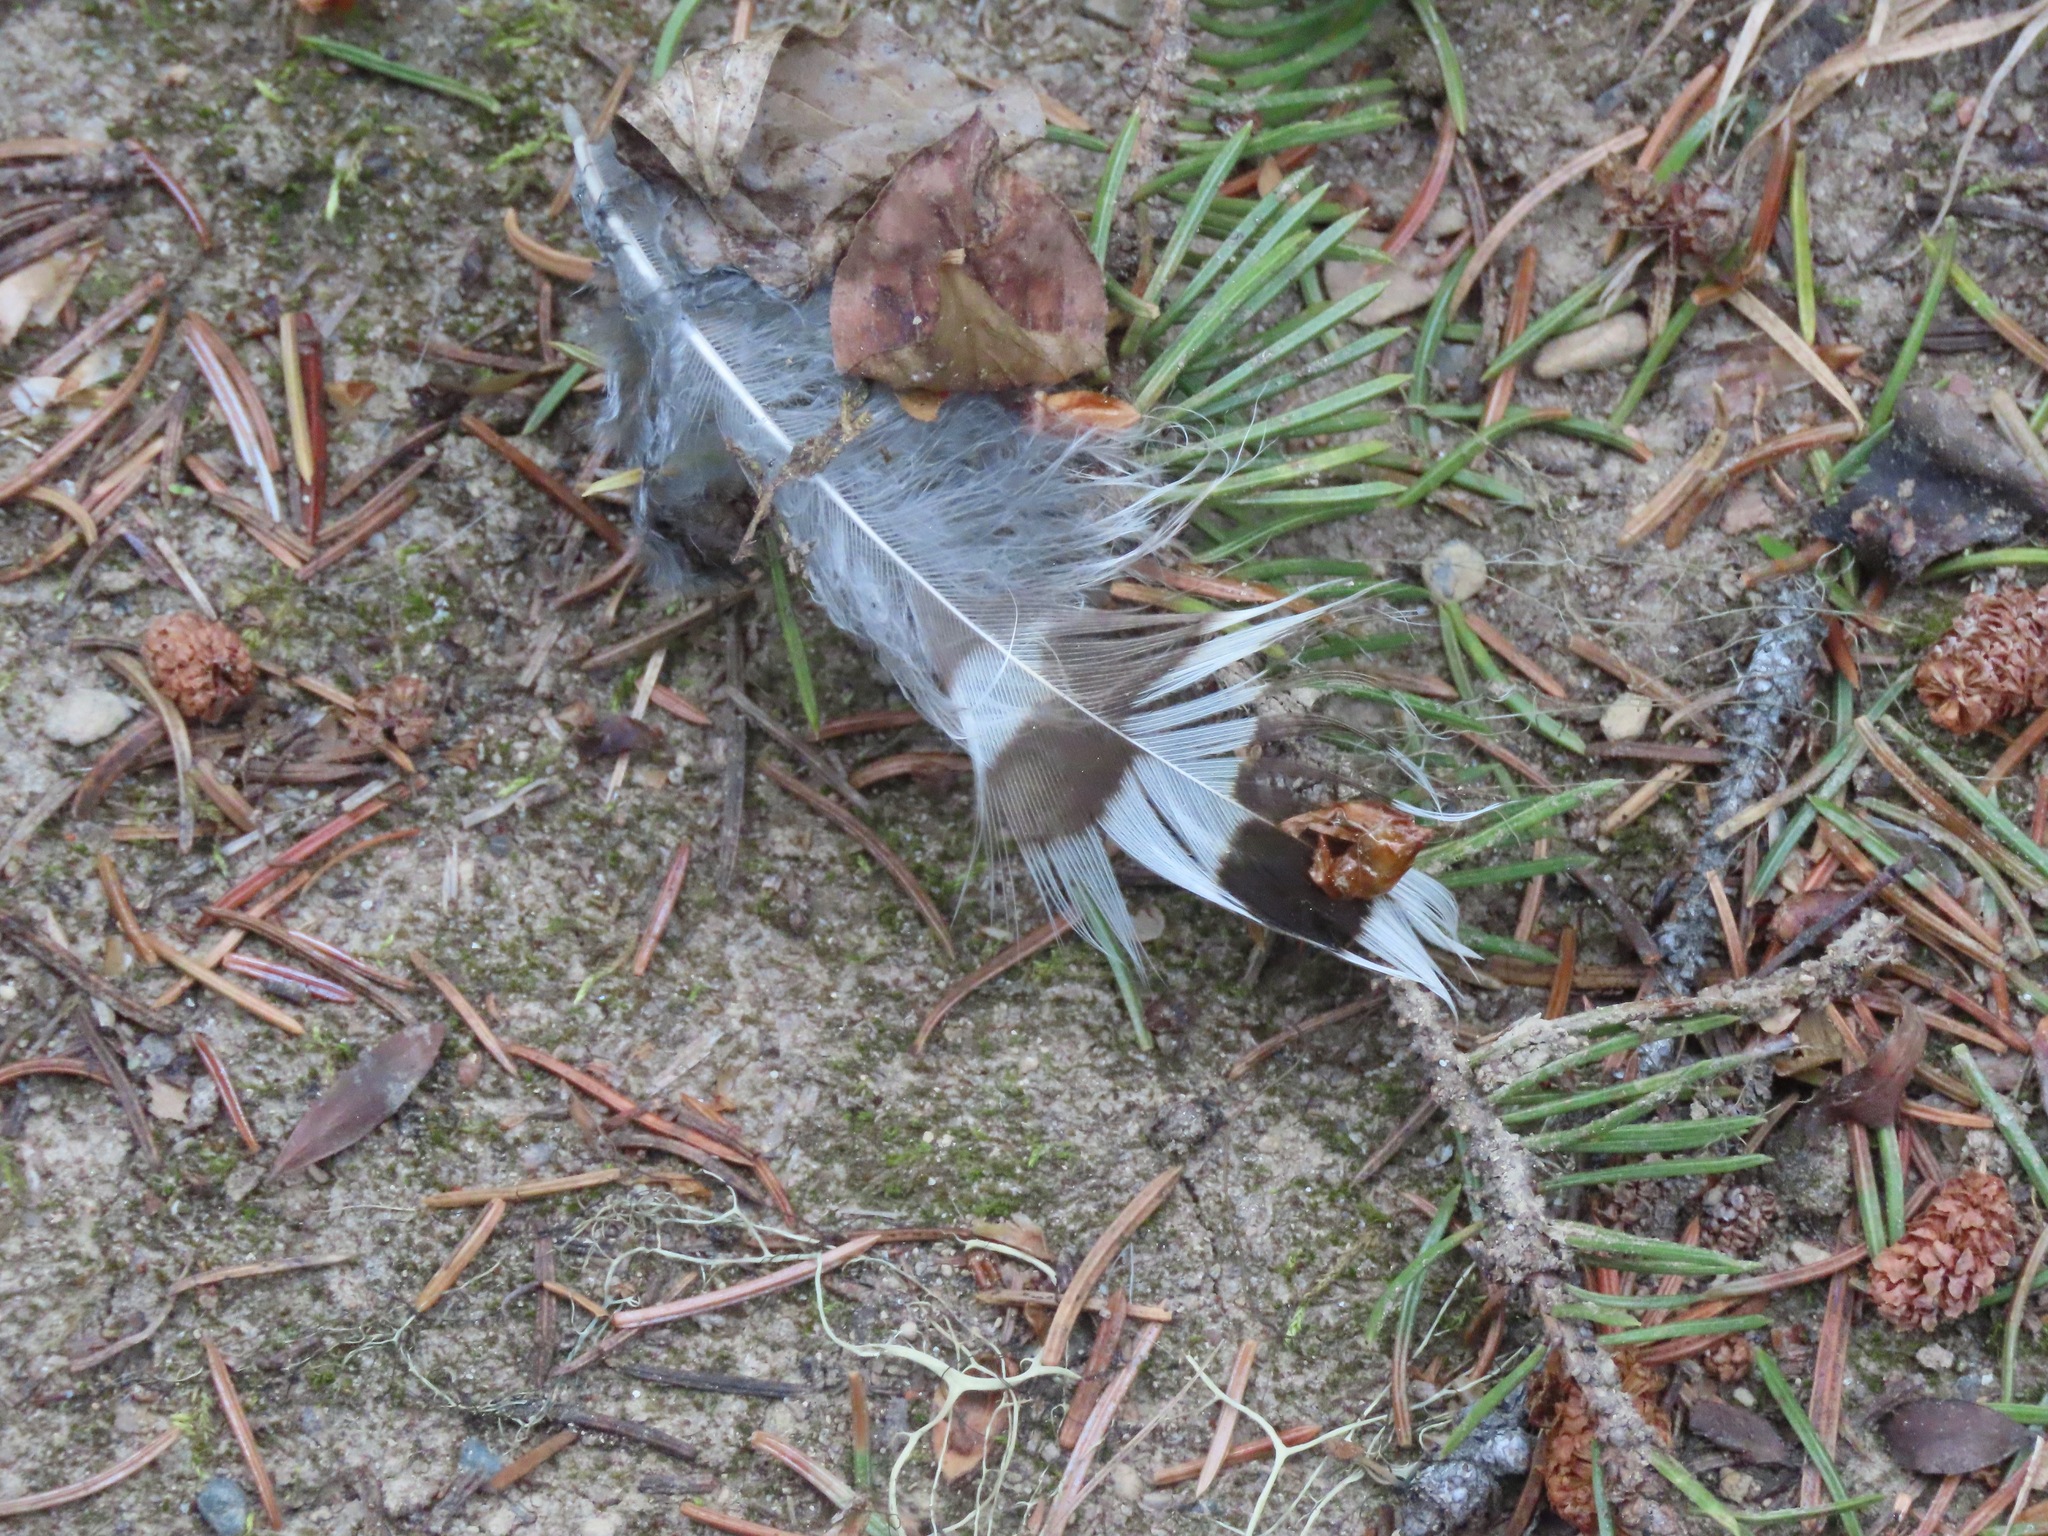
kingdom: Animalia
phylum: Chordata
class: Aves
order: Galliformes
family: Phasianidae
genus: Bonasa
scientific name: Bonasa umbellus
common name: Ruffed grouse
